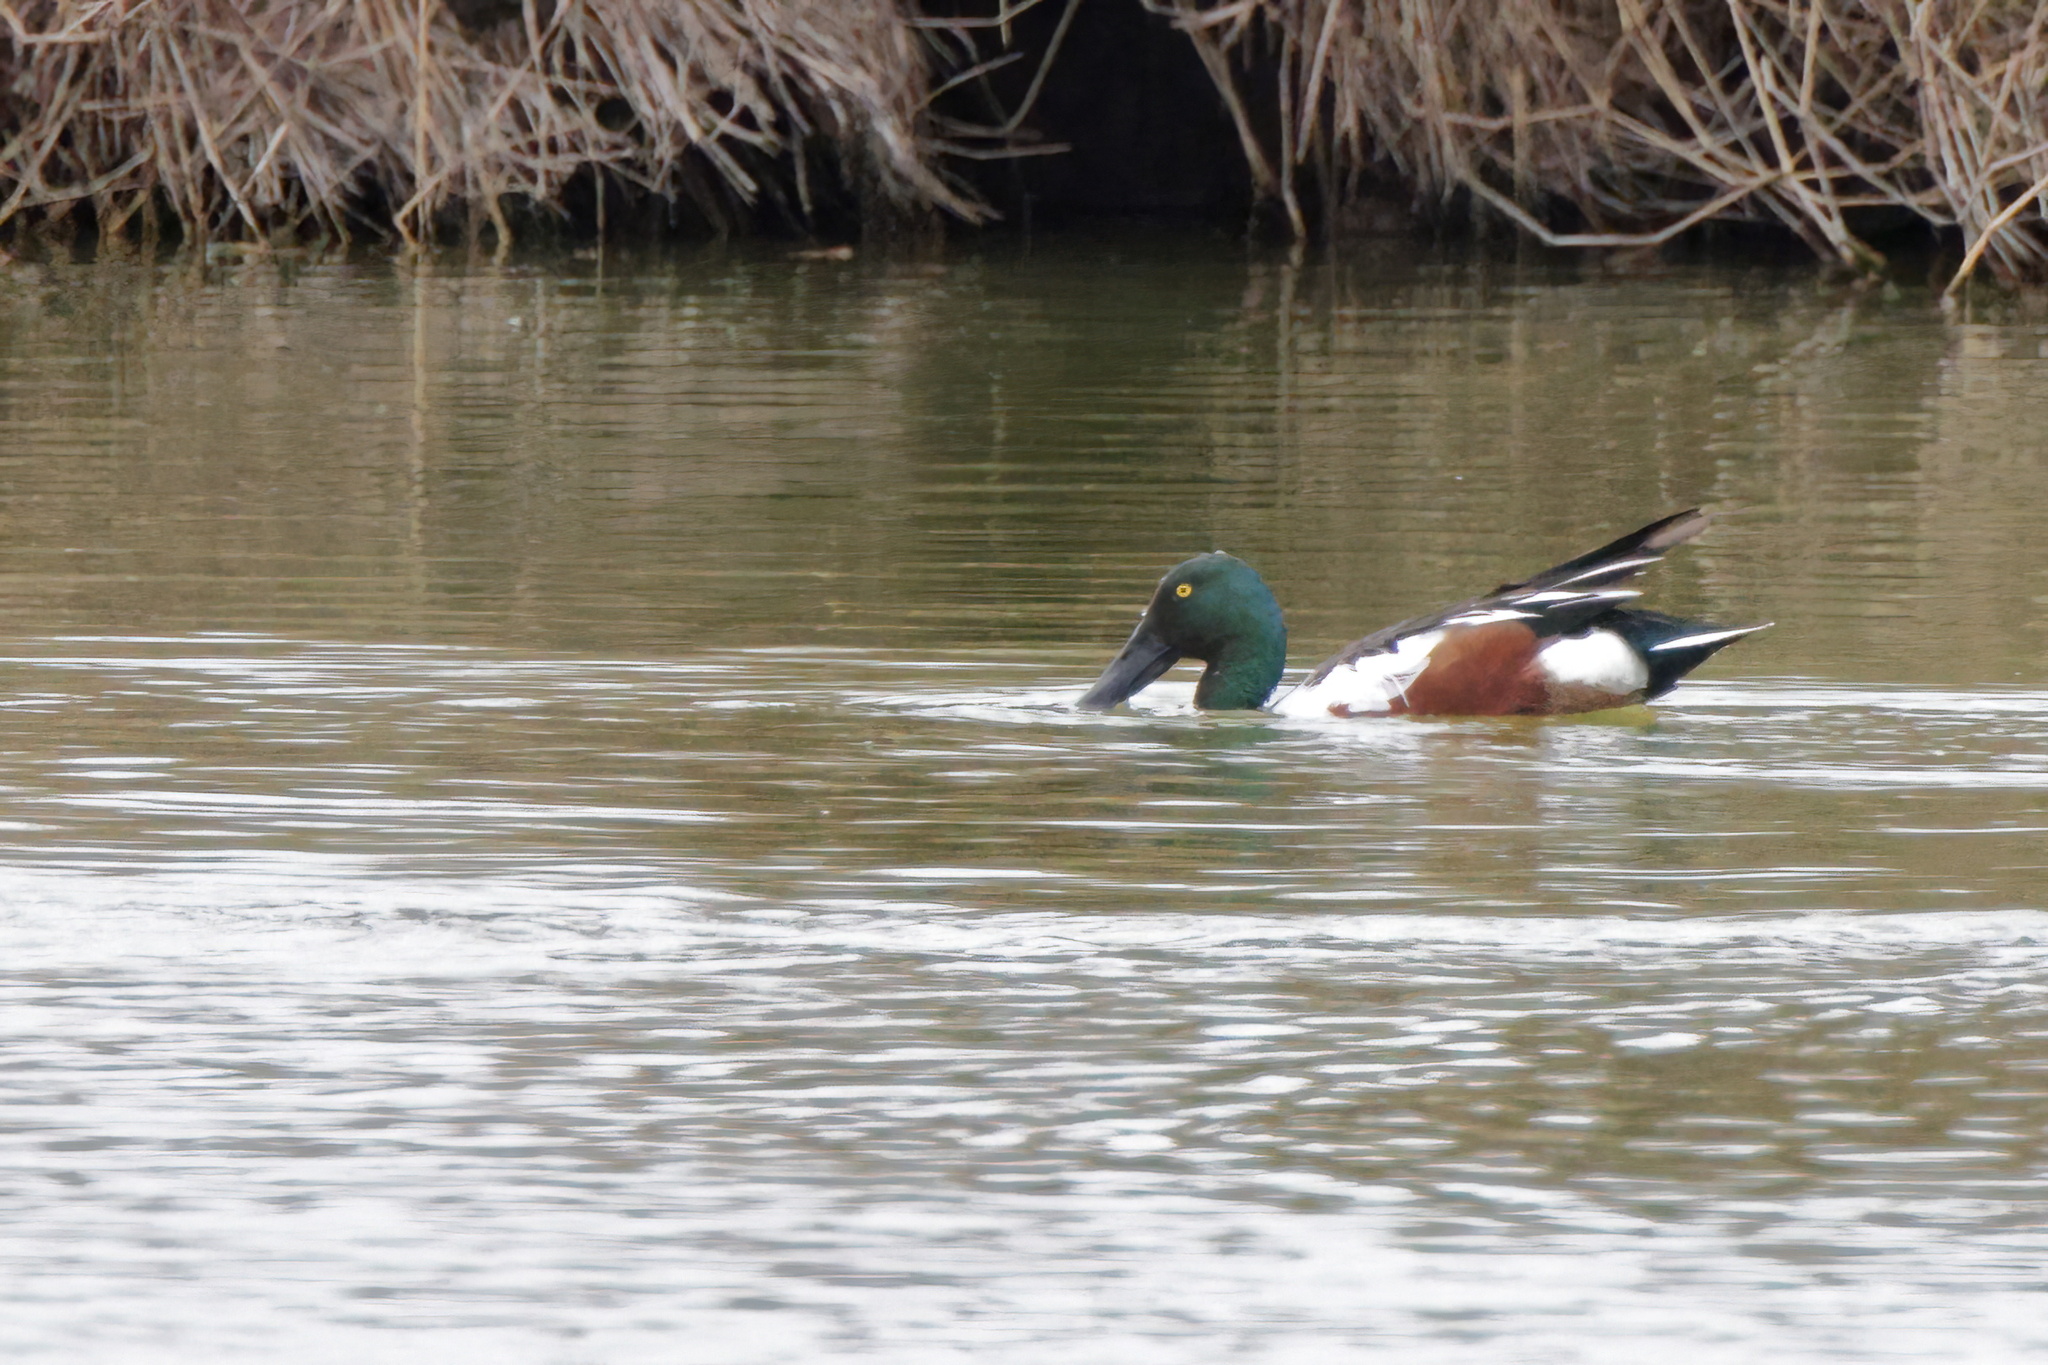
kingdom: Animalia
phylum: Chordata
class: Aves
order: Anseriformes
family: Anatidae
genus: Spatula
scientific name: Spatula clypeata
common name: Northern shoveler
